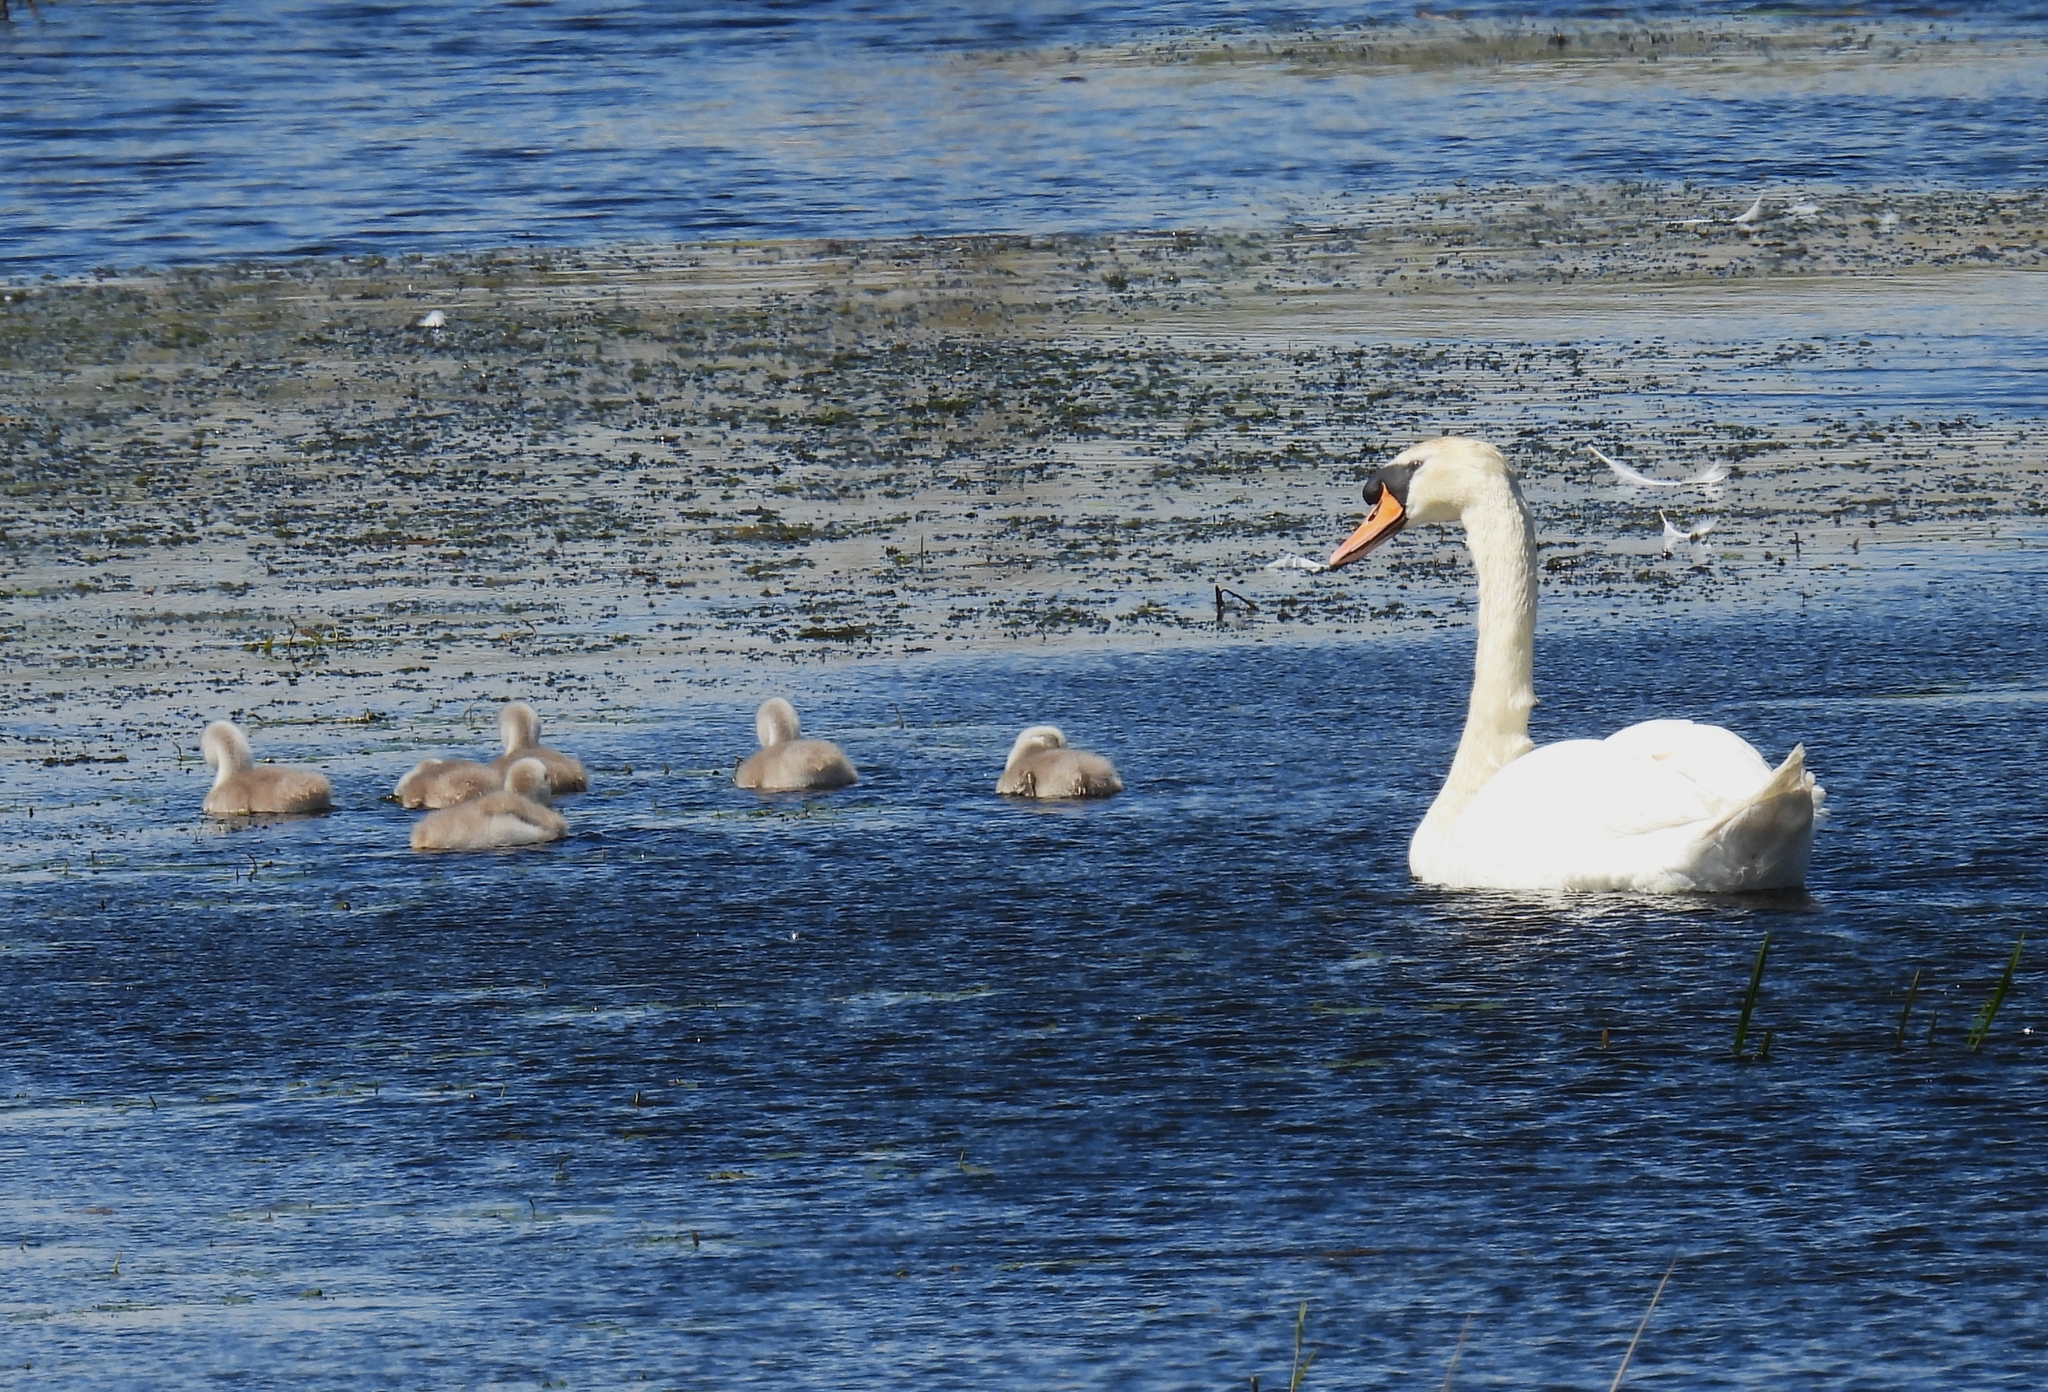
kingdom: Animalia
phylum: Chordata
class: Aves
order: Anseriformes
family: Anatidae
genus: Cygnus
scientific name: Cygnus olor
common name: Mute swan
